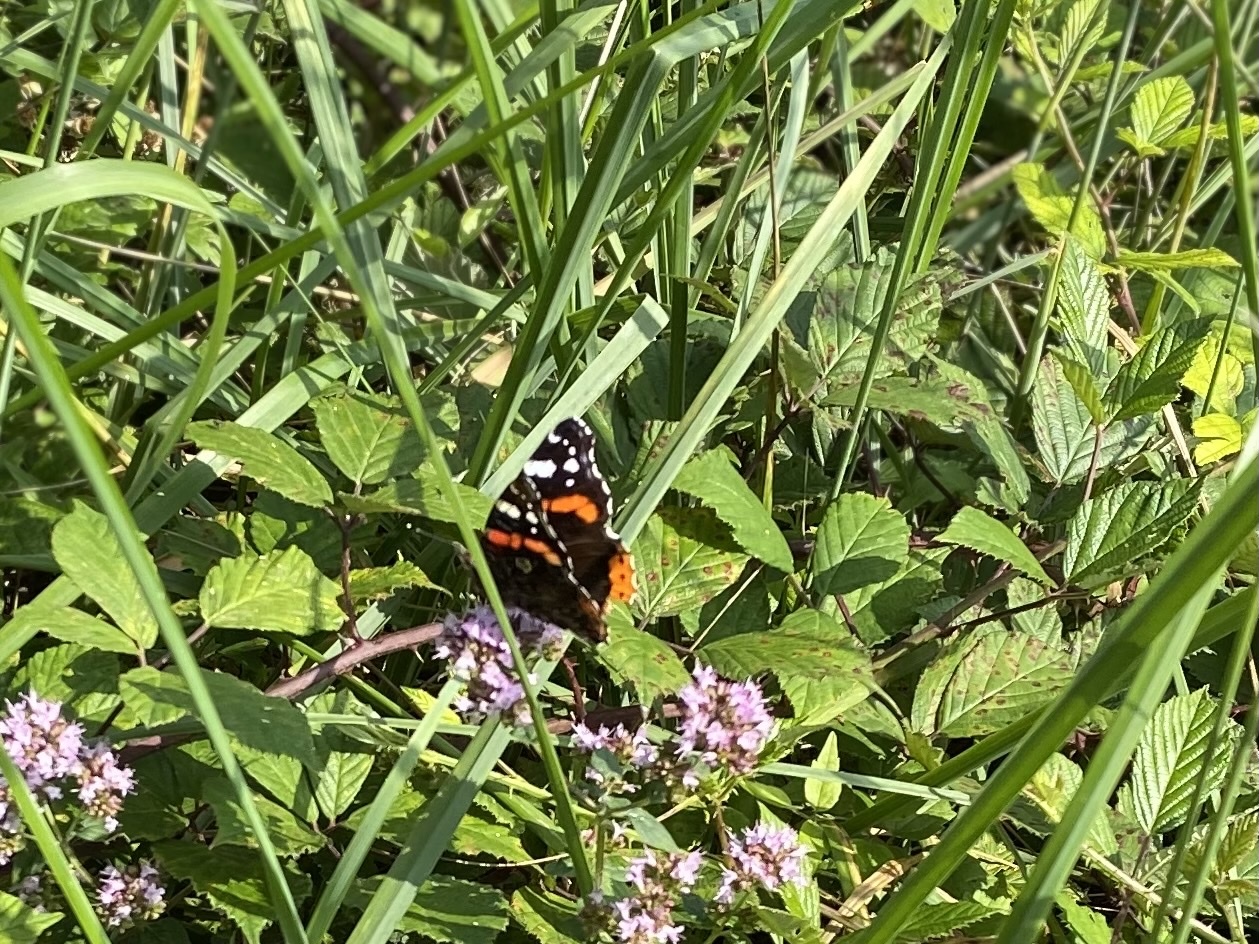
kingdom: Animalia
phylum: Arthropoda
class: Insecta
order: Lepidoptera
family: Nymphalidae
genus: Vanessa
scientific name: Vanessa atalanta
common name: Red admiral
